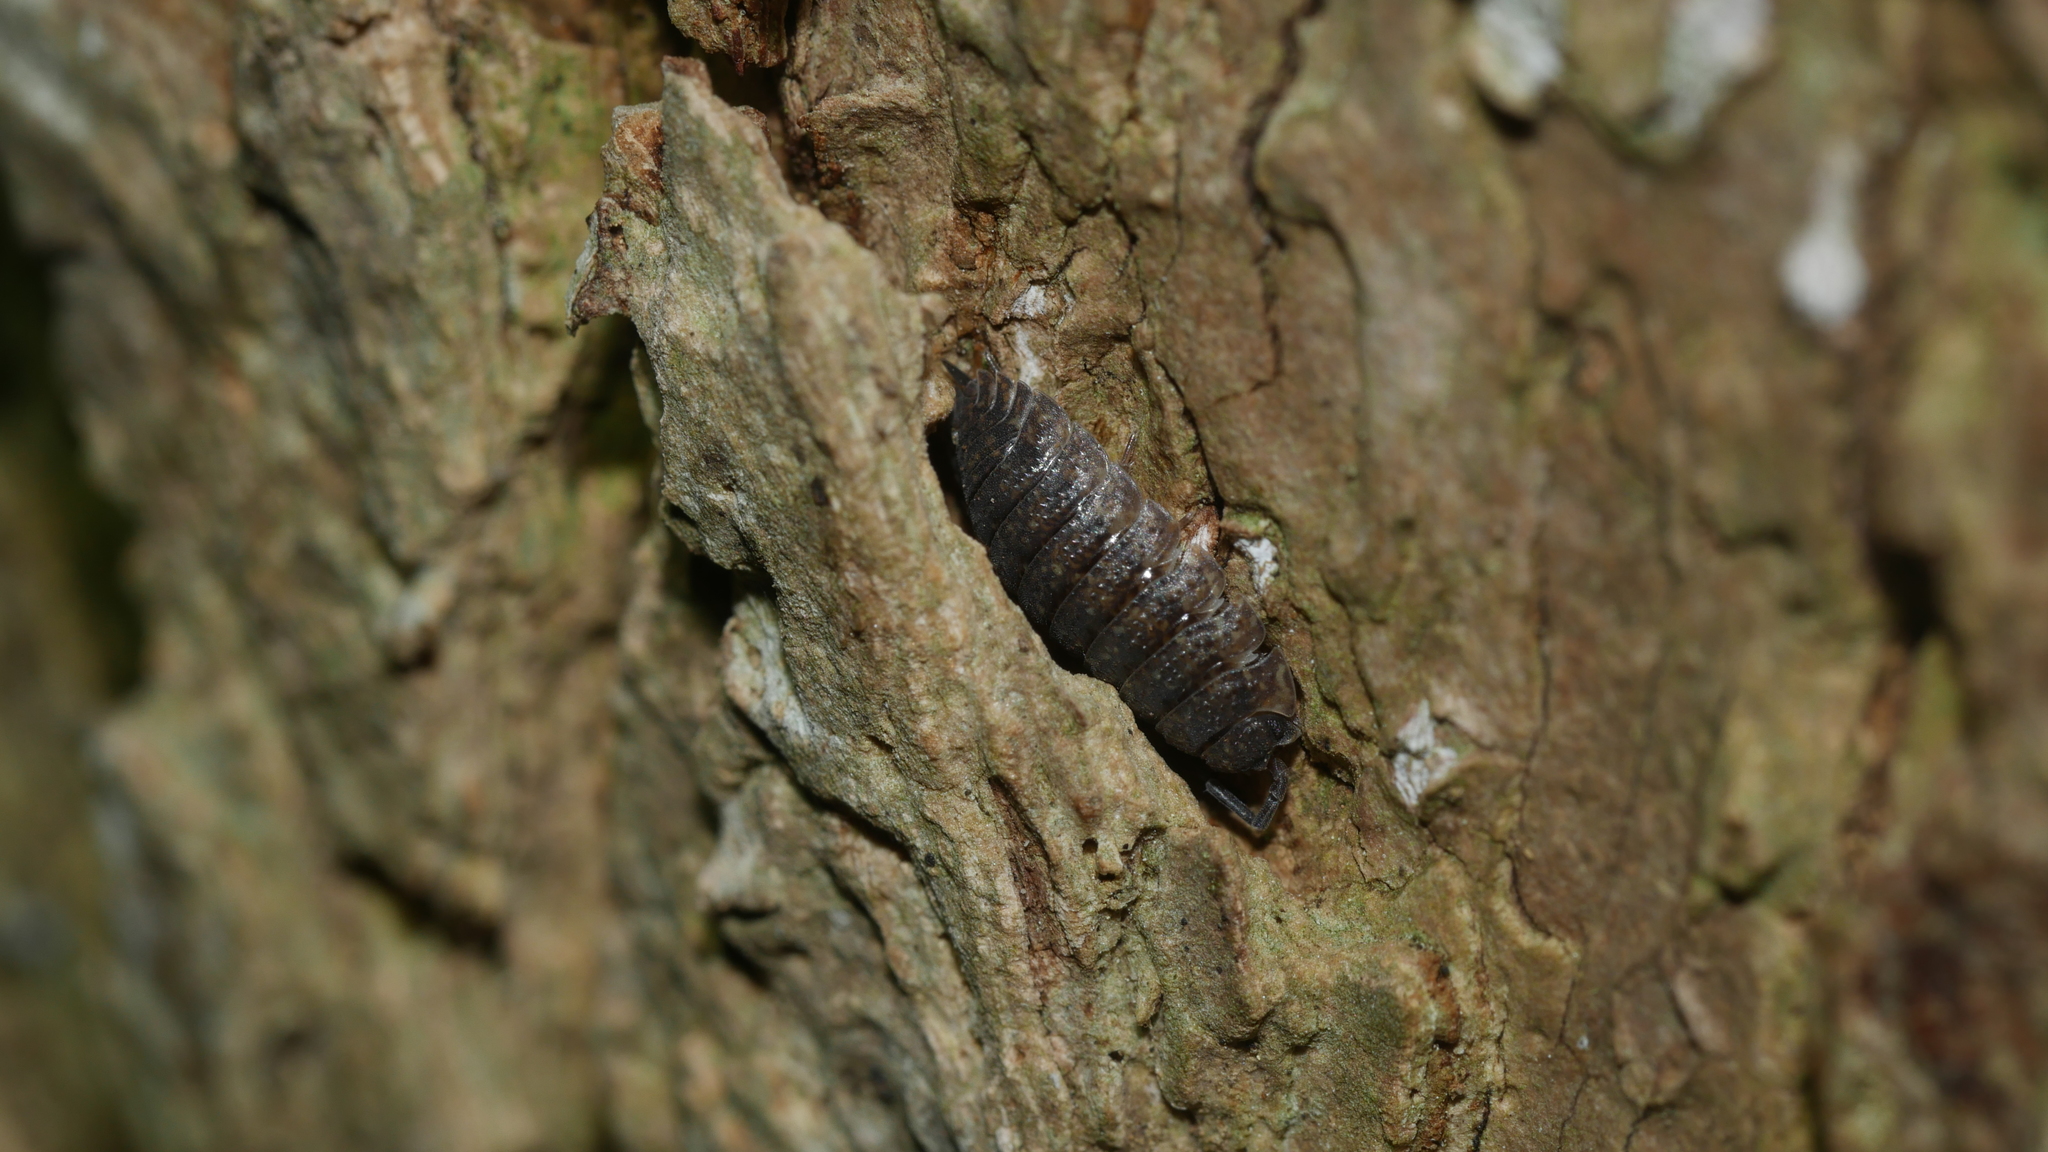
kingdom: Animalia
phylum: Arthropoda
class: Malacostraca
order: Isopoda
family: Porcellionidae
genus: Porcellio
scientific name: Porcellio scaber
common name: Common rough woodlouse
